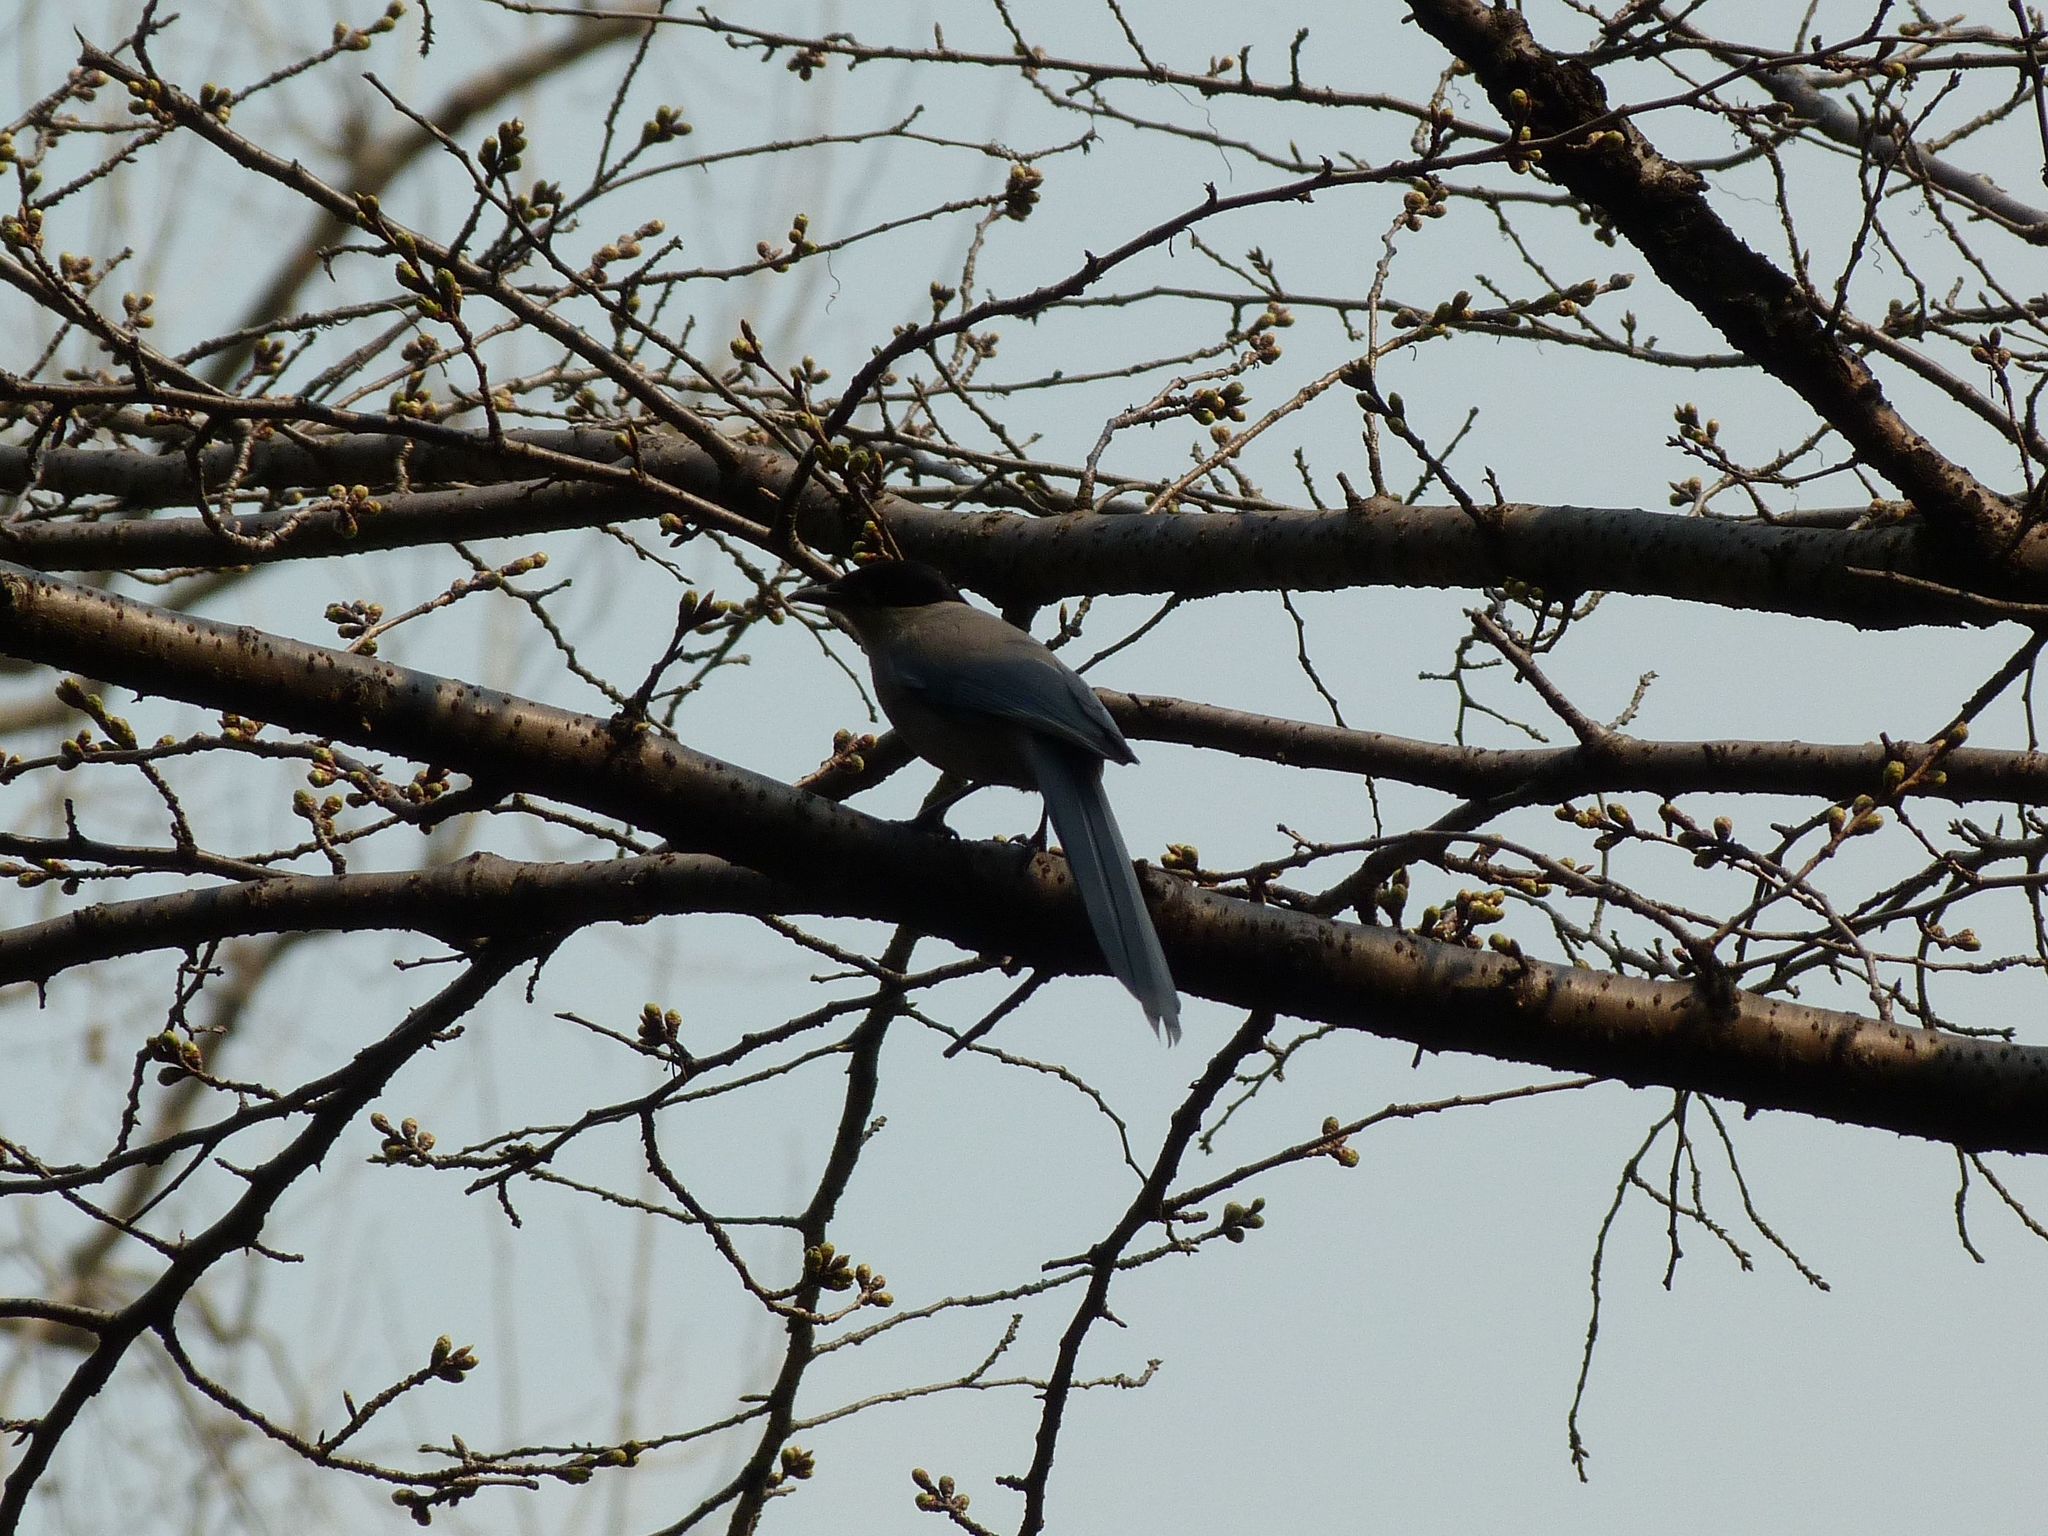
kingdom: Animalia
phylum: Chordata
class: Aves
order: Passeriformes
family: Corvidae
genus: Cyanopica
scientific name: Cyanopica cyanus
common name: Azure-winged magpie
